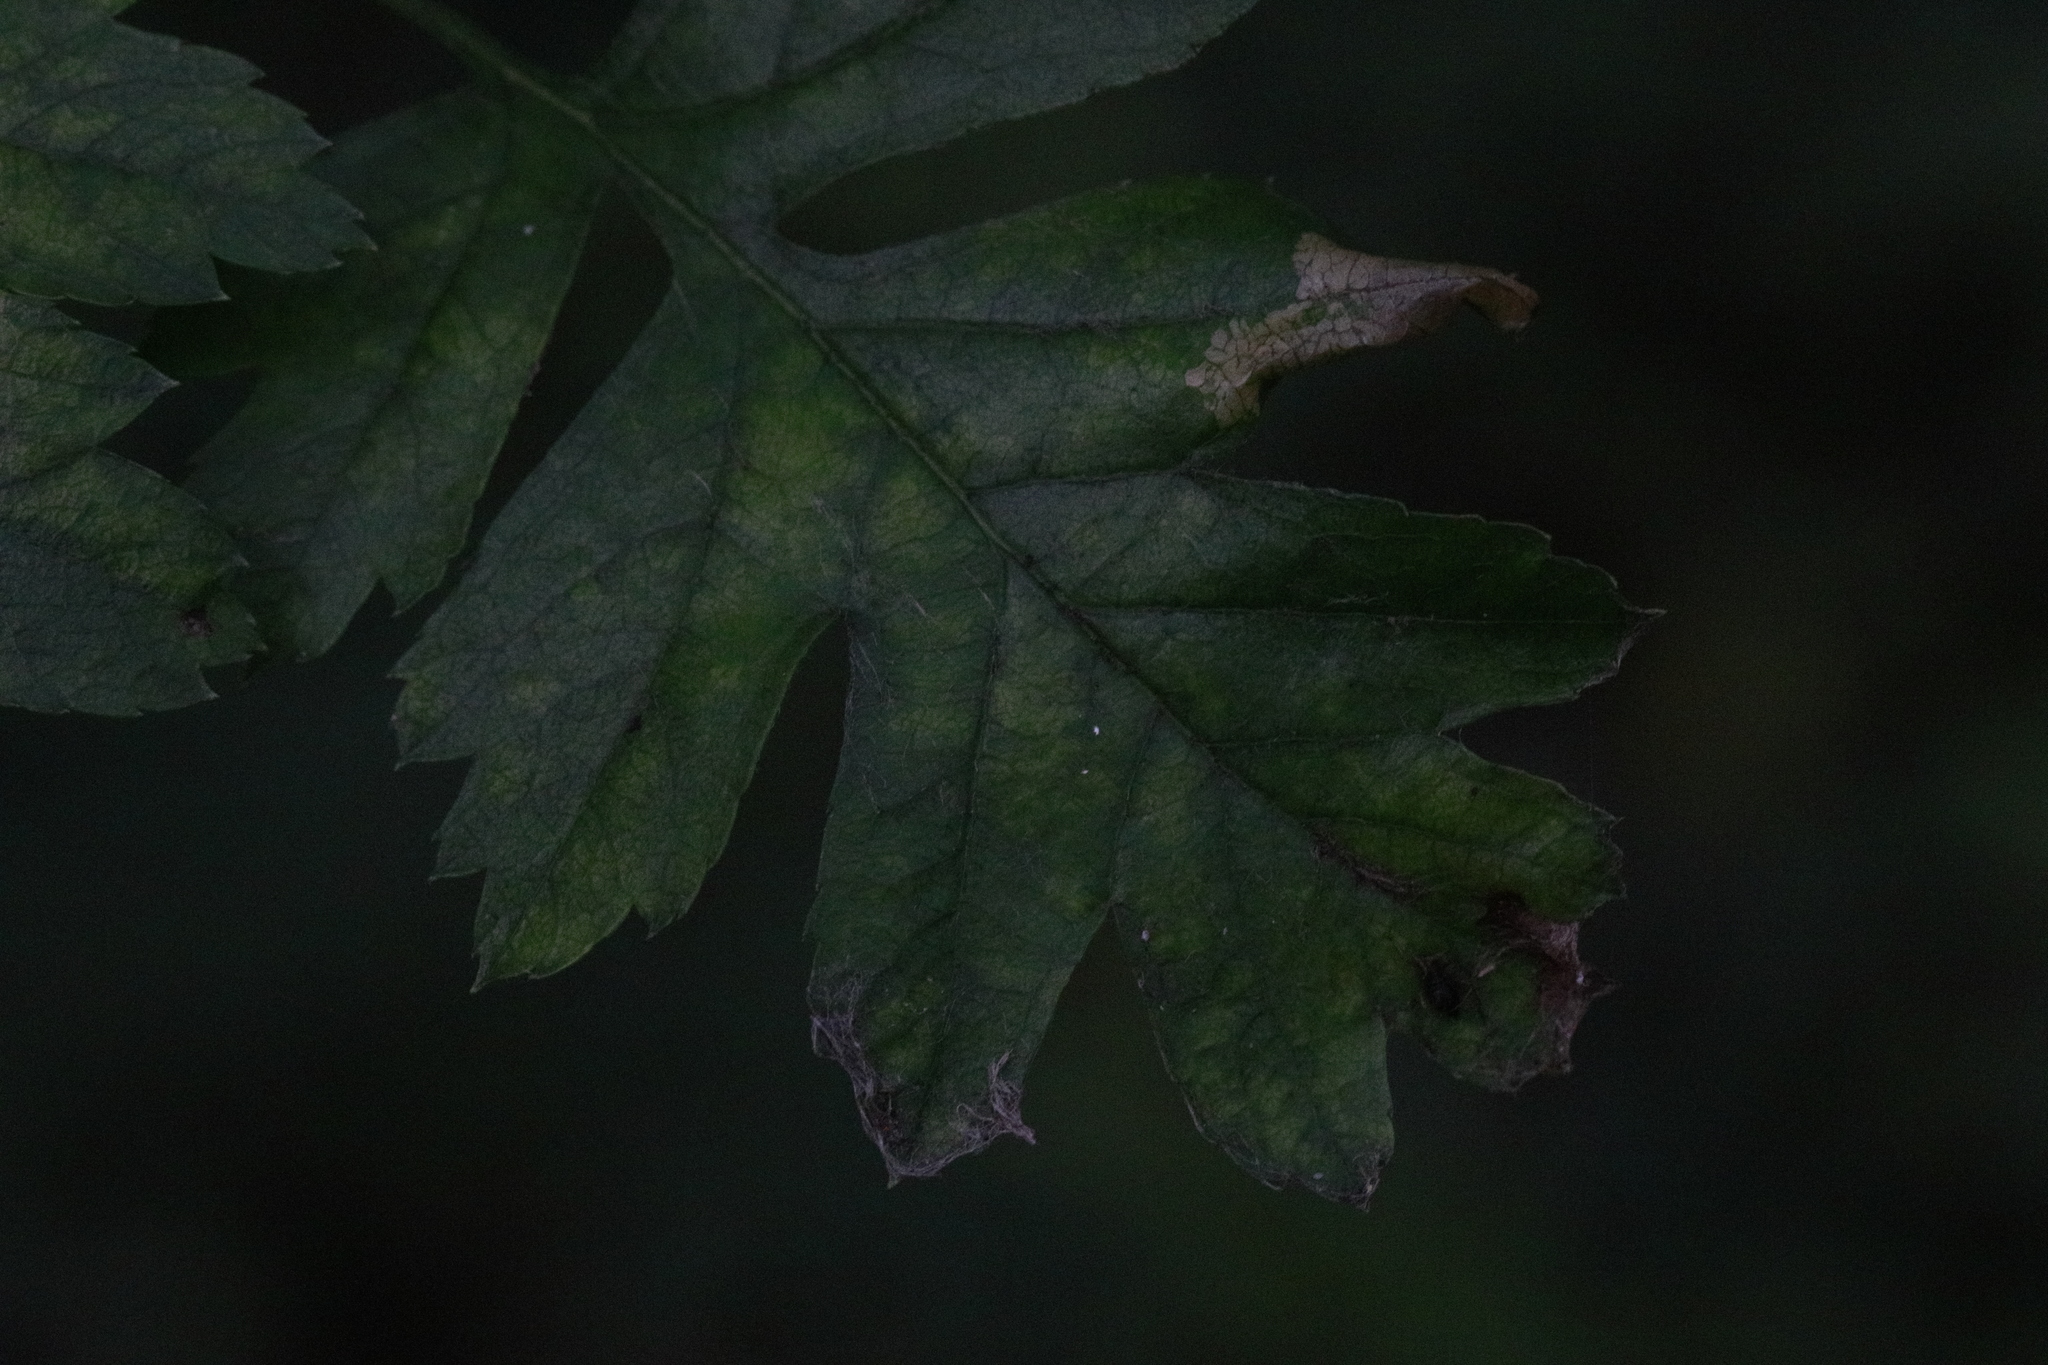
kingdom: Animalia
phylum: Arthropoda
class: Insecta
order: Lepidoptera
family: Gracillariidae
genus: Phyllonorycter
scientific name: Phyllonorycter oxyacanthae
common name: Common thorn midget
